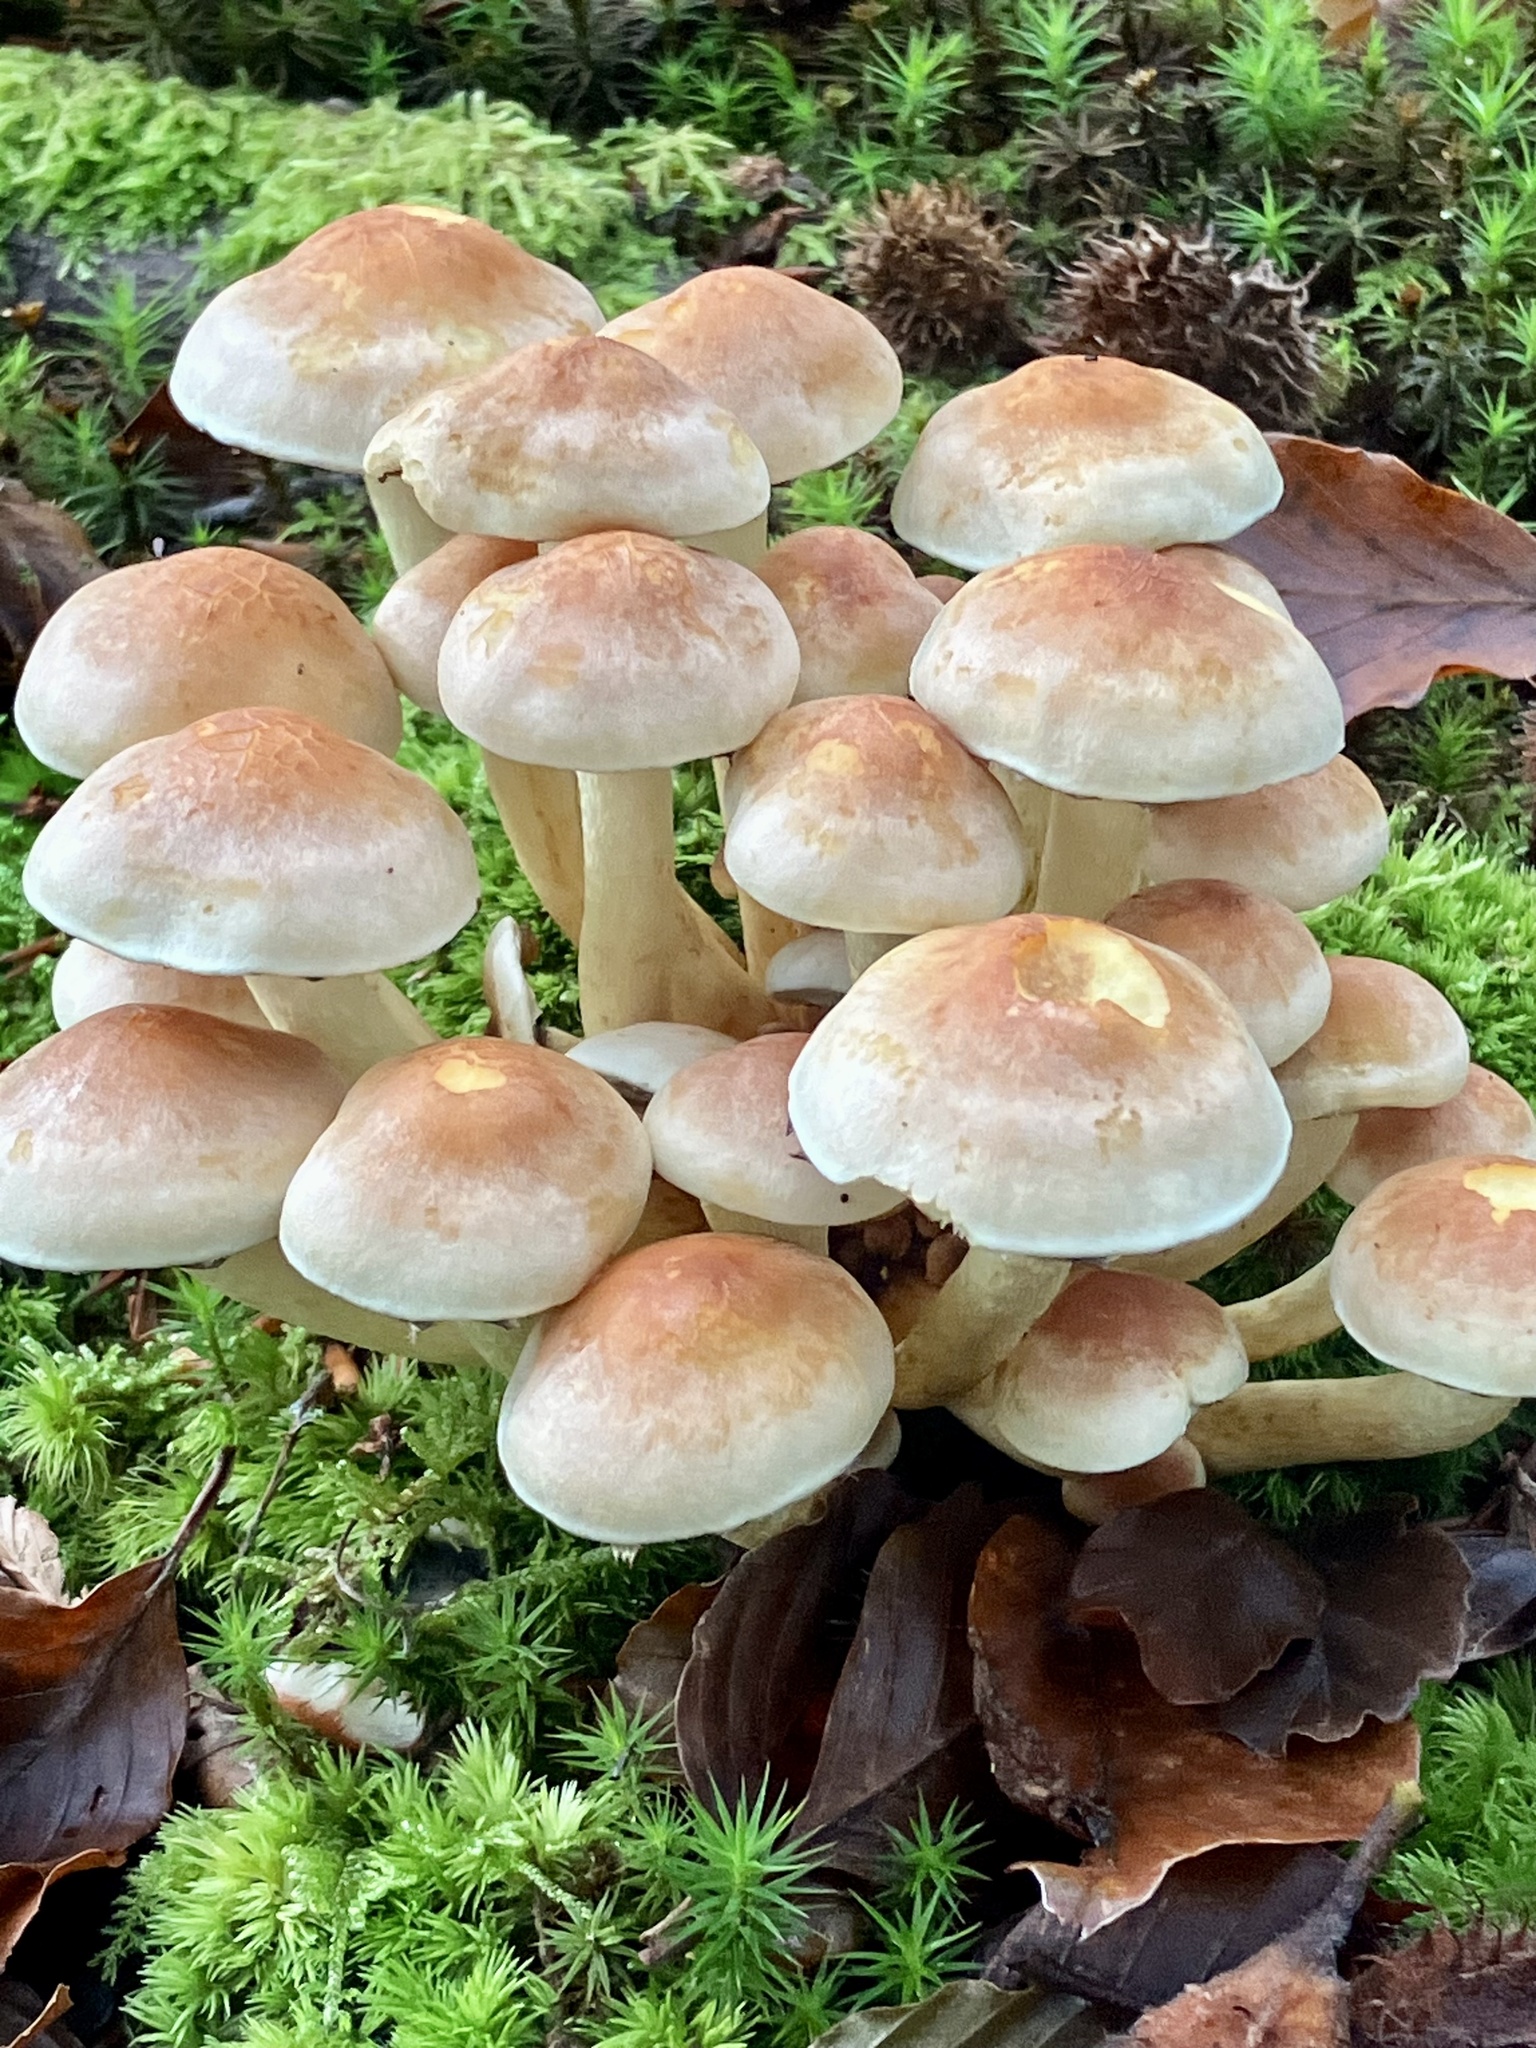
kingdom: Fungi
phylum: Basidiomycota
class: Agaricomycetes
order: Agaricales
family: Strophariaceae
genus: Hypholoma
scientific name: Hypholoma fasciculare
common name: Sulphur tuft
